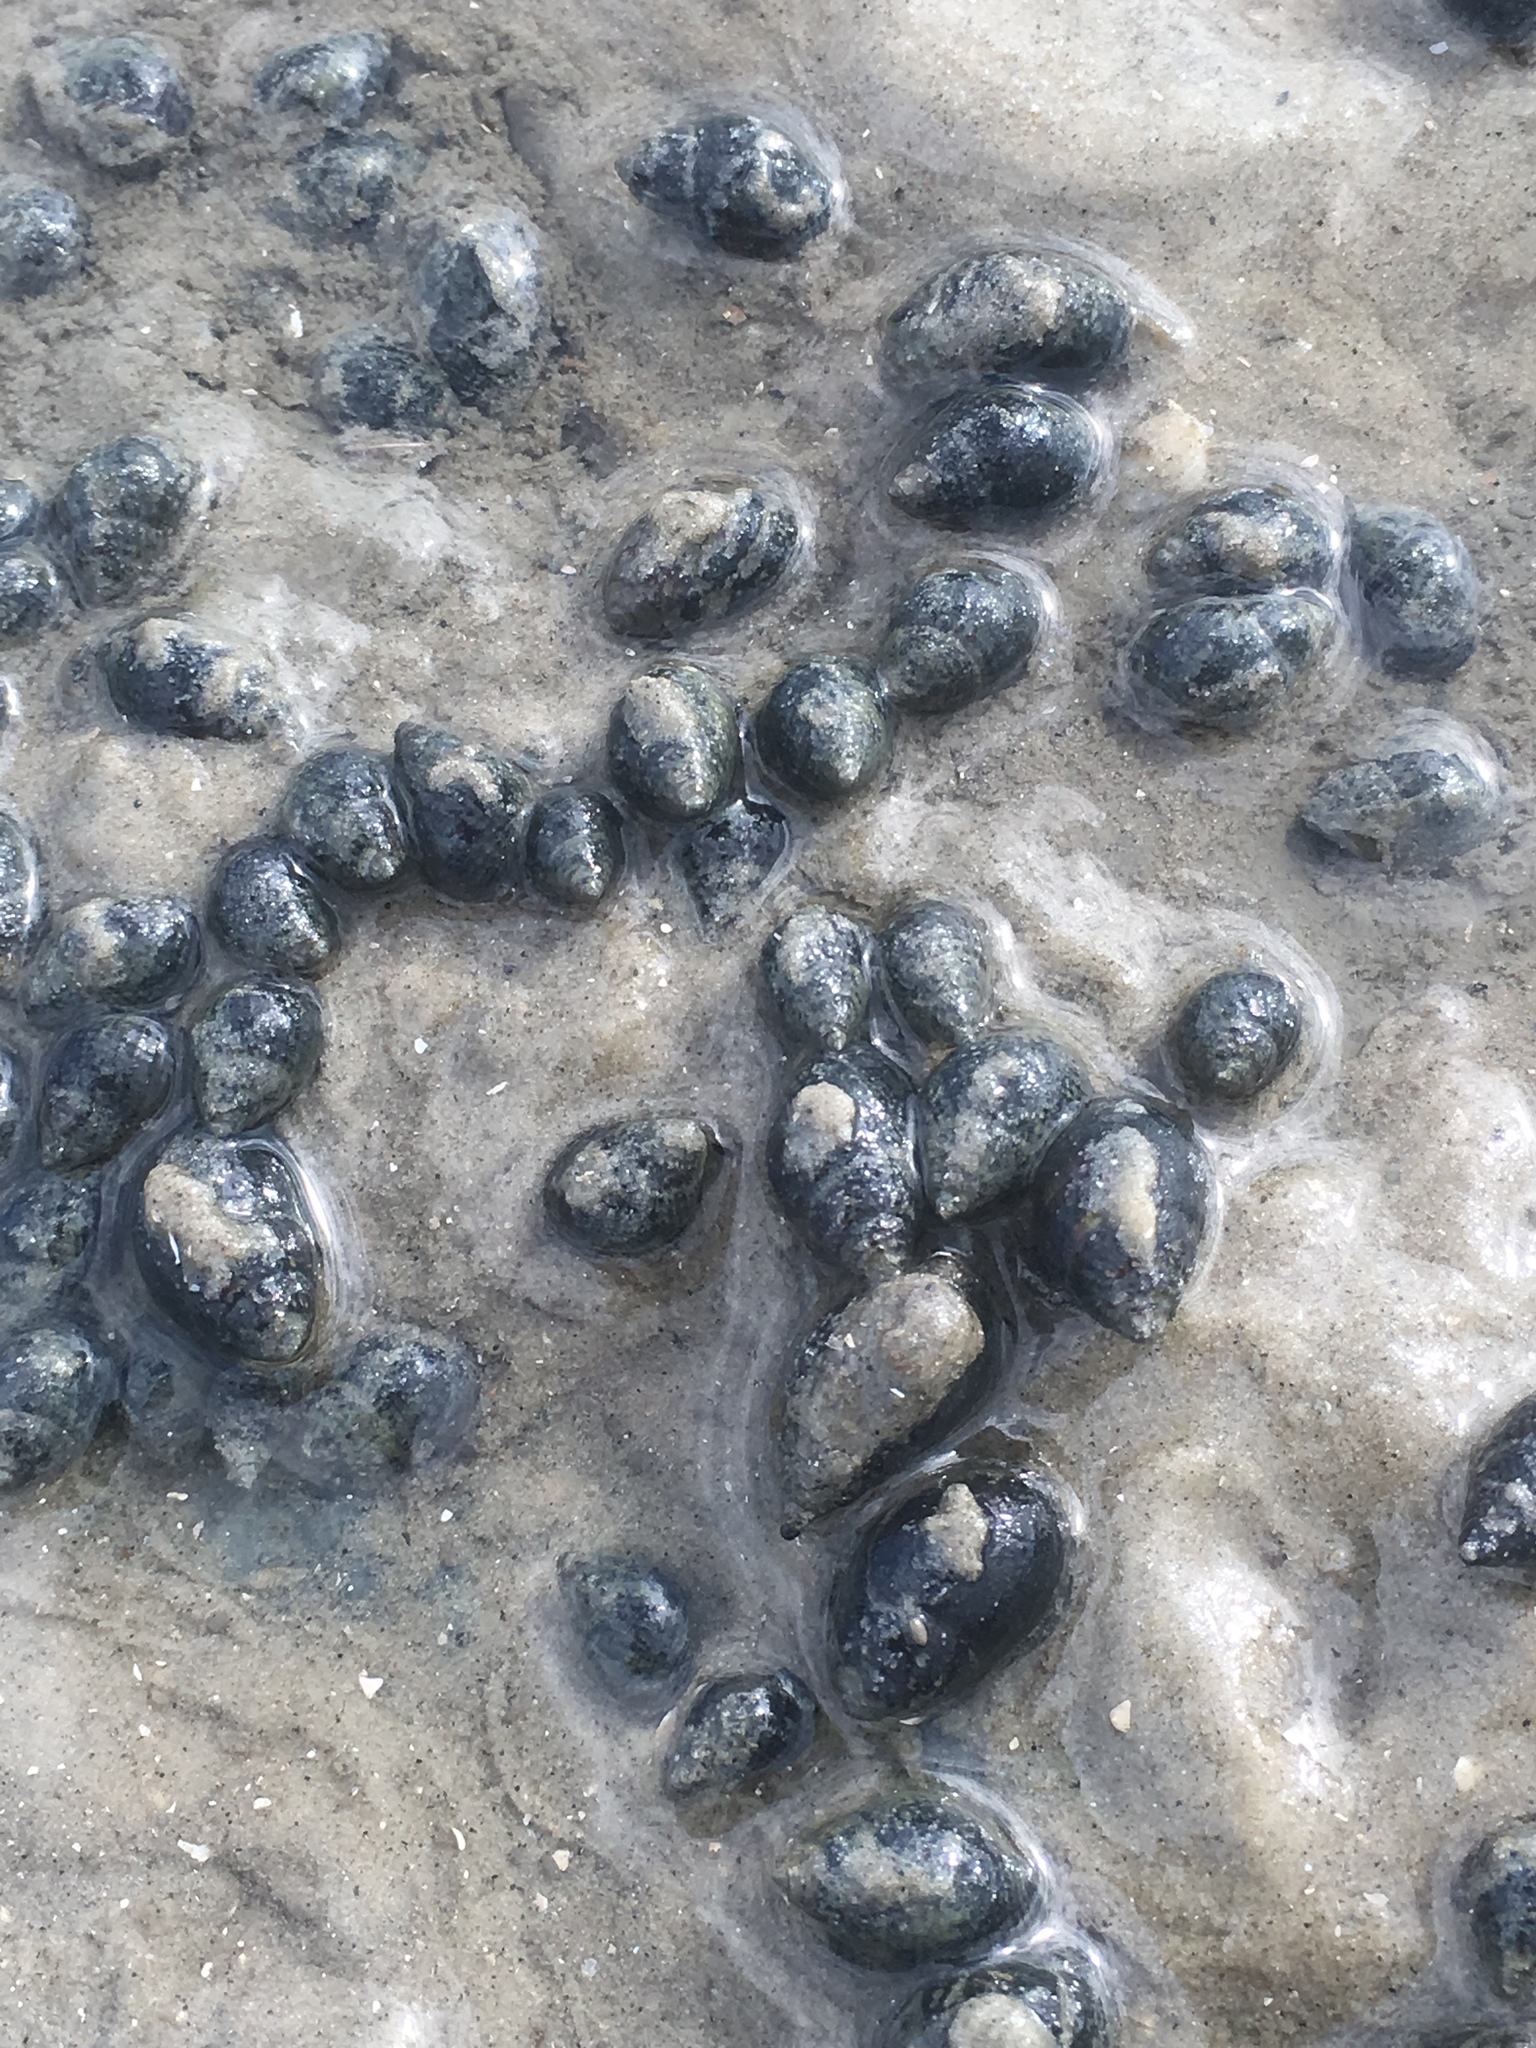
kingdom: Animalia
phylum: Mollusca
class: Gastropoda
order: Neogastropoda
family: Nassariidae
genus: Ilyanassa
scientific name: Ilyanassa obsoleta
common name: Eastern mudsnail
